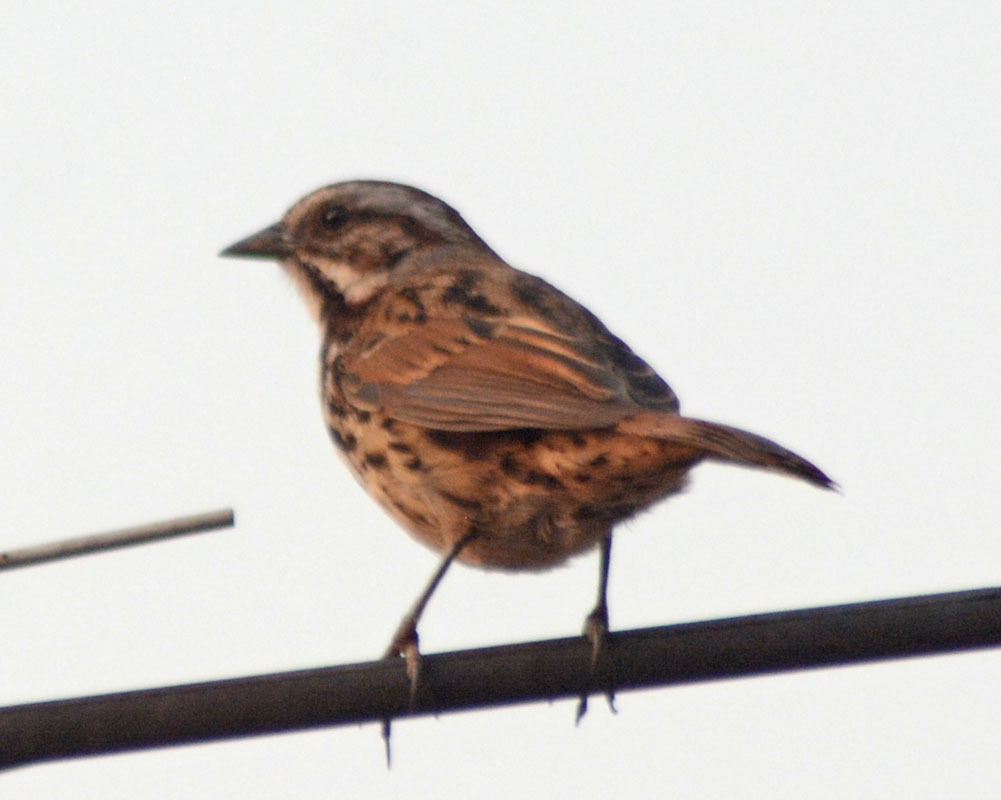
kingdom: Animalia
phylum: Chordata
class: Aves
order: Passeriformes
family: Passerellidae
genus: Melospiza
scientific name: Melospiza melodia
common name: Song sparrow
